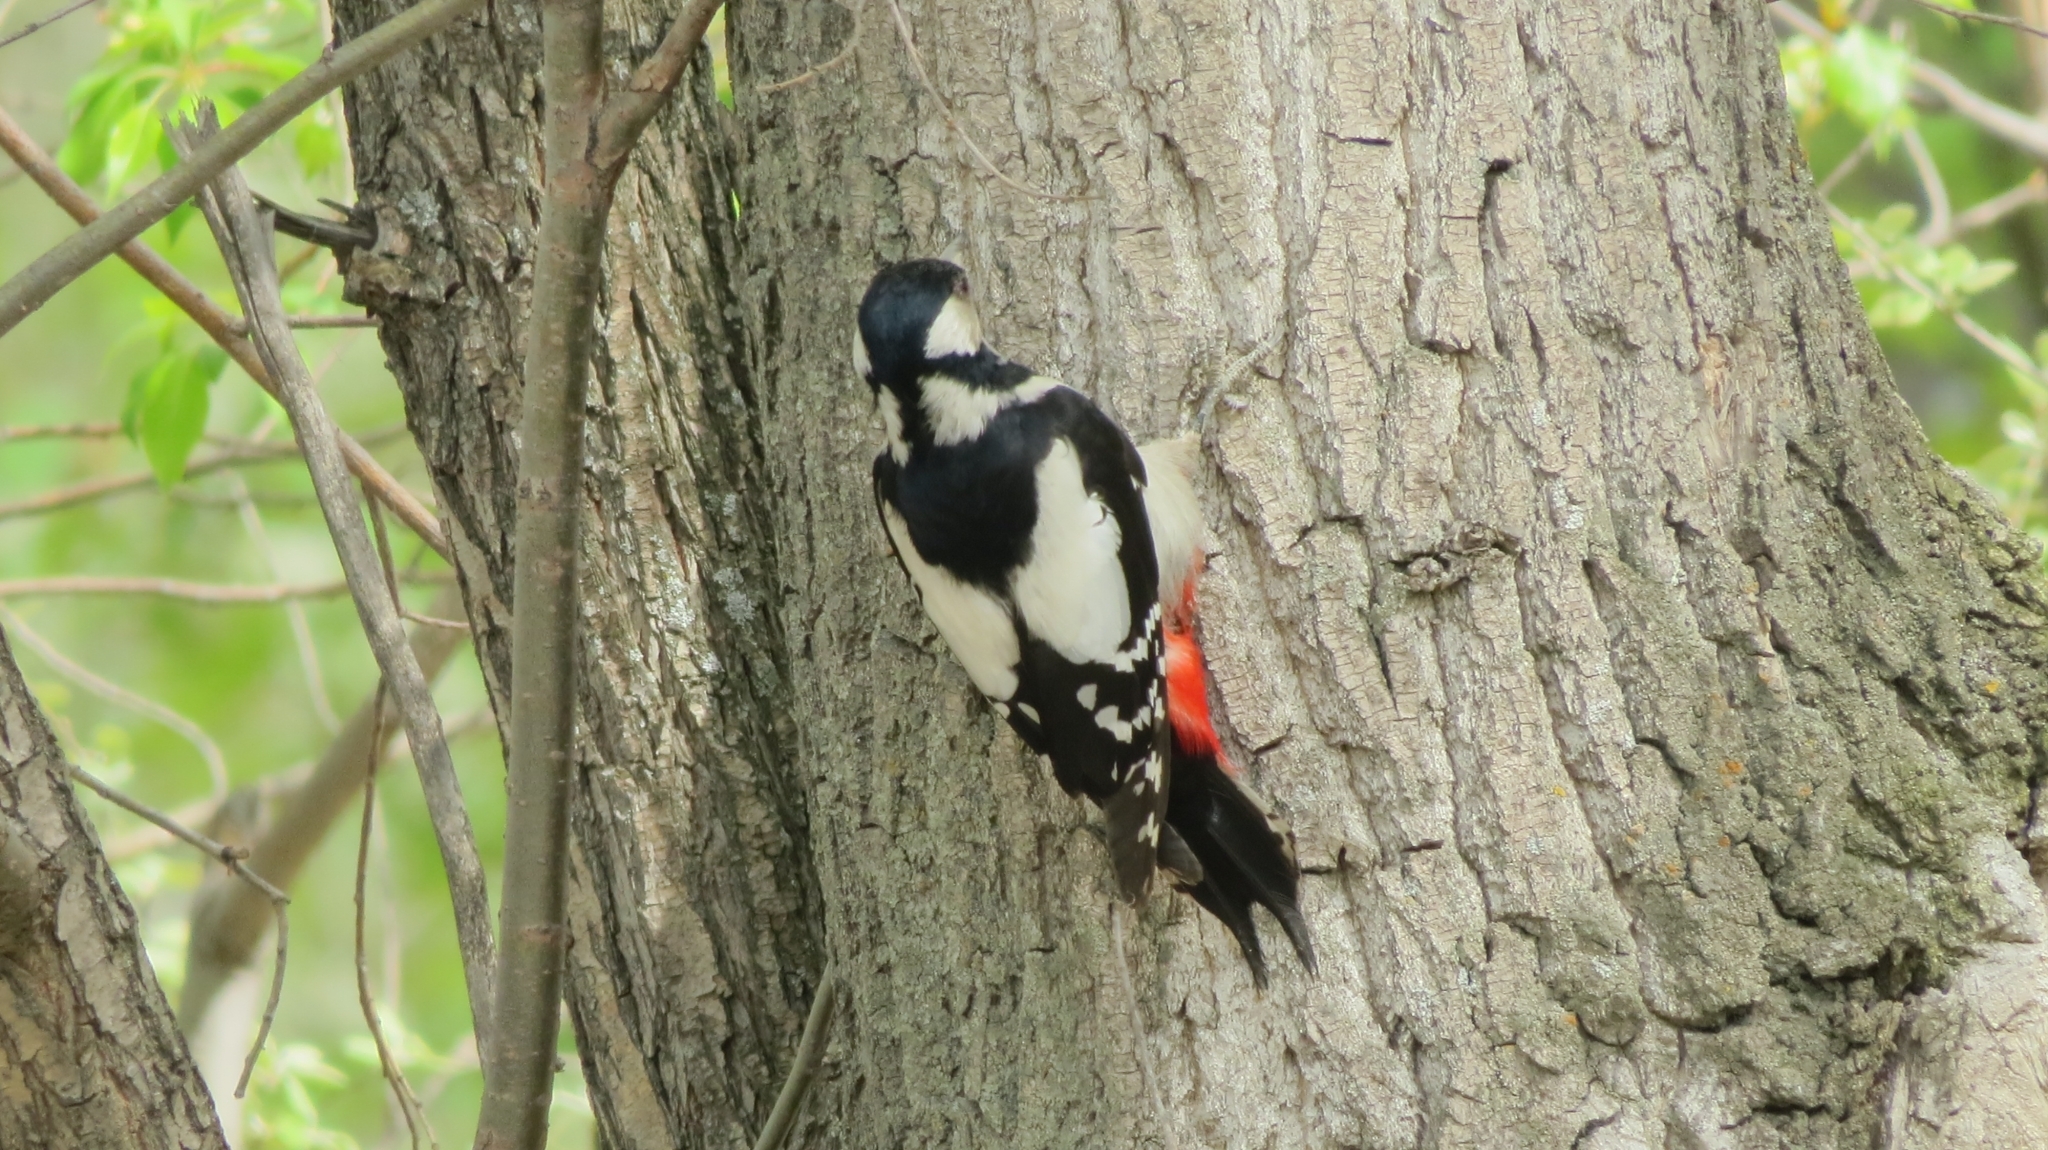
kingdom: Animalia
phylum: Chordata
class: Aves
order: Piciformes
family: Picidae
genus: Dendrocopos
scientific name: Dendrocopos major
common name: Great spotted woodpecker
